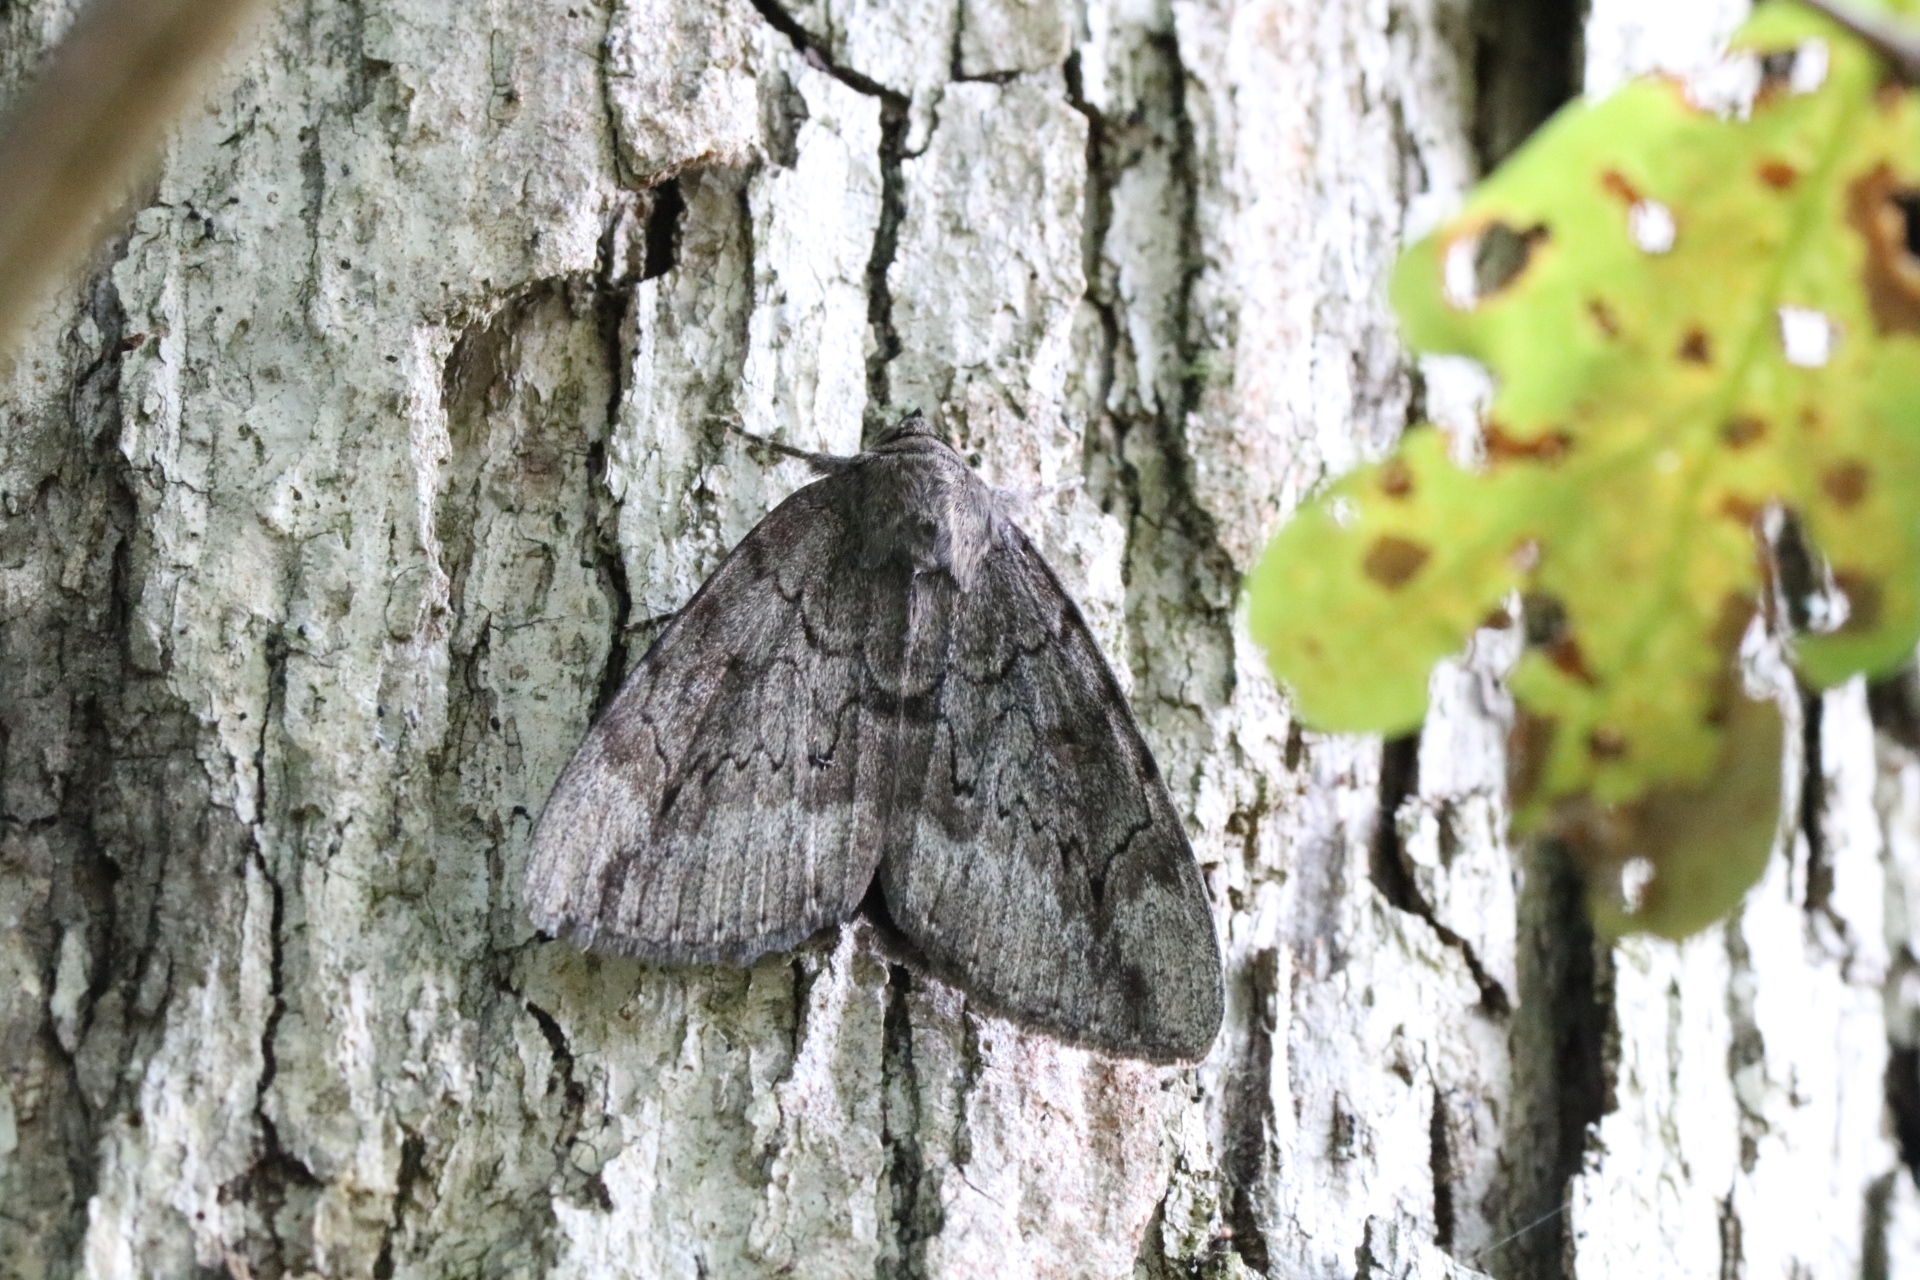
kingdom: Animalia
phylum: Arthropoda
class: Insecta
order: Lepidoptera
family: Erebidae
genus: Catocala
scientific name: Catocala residua
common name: Residua underwing
